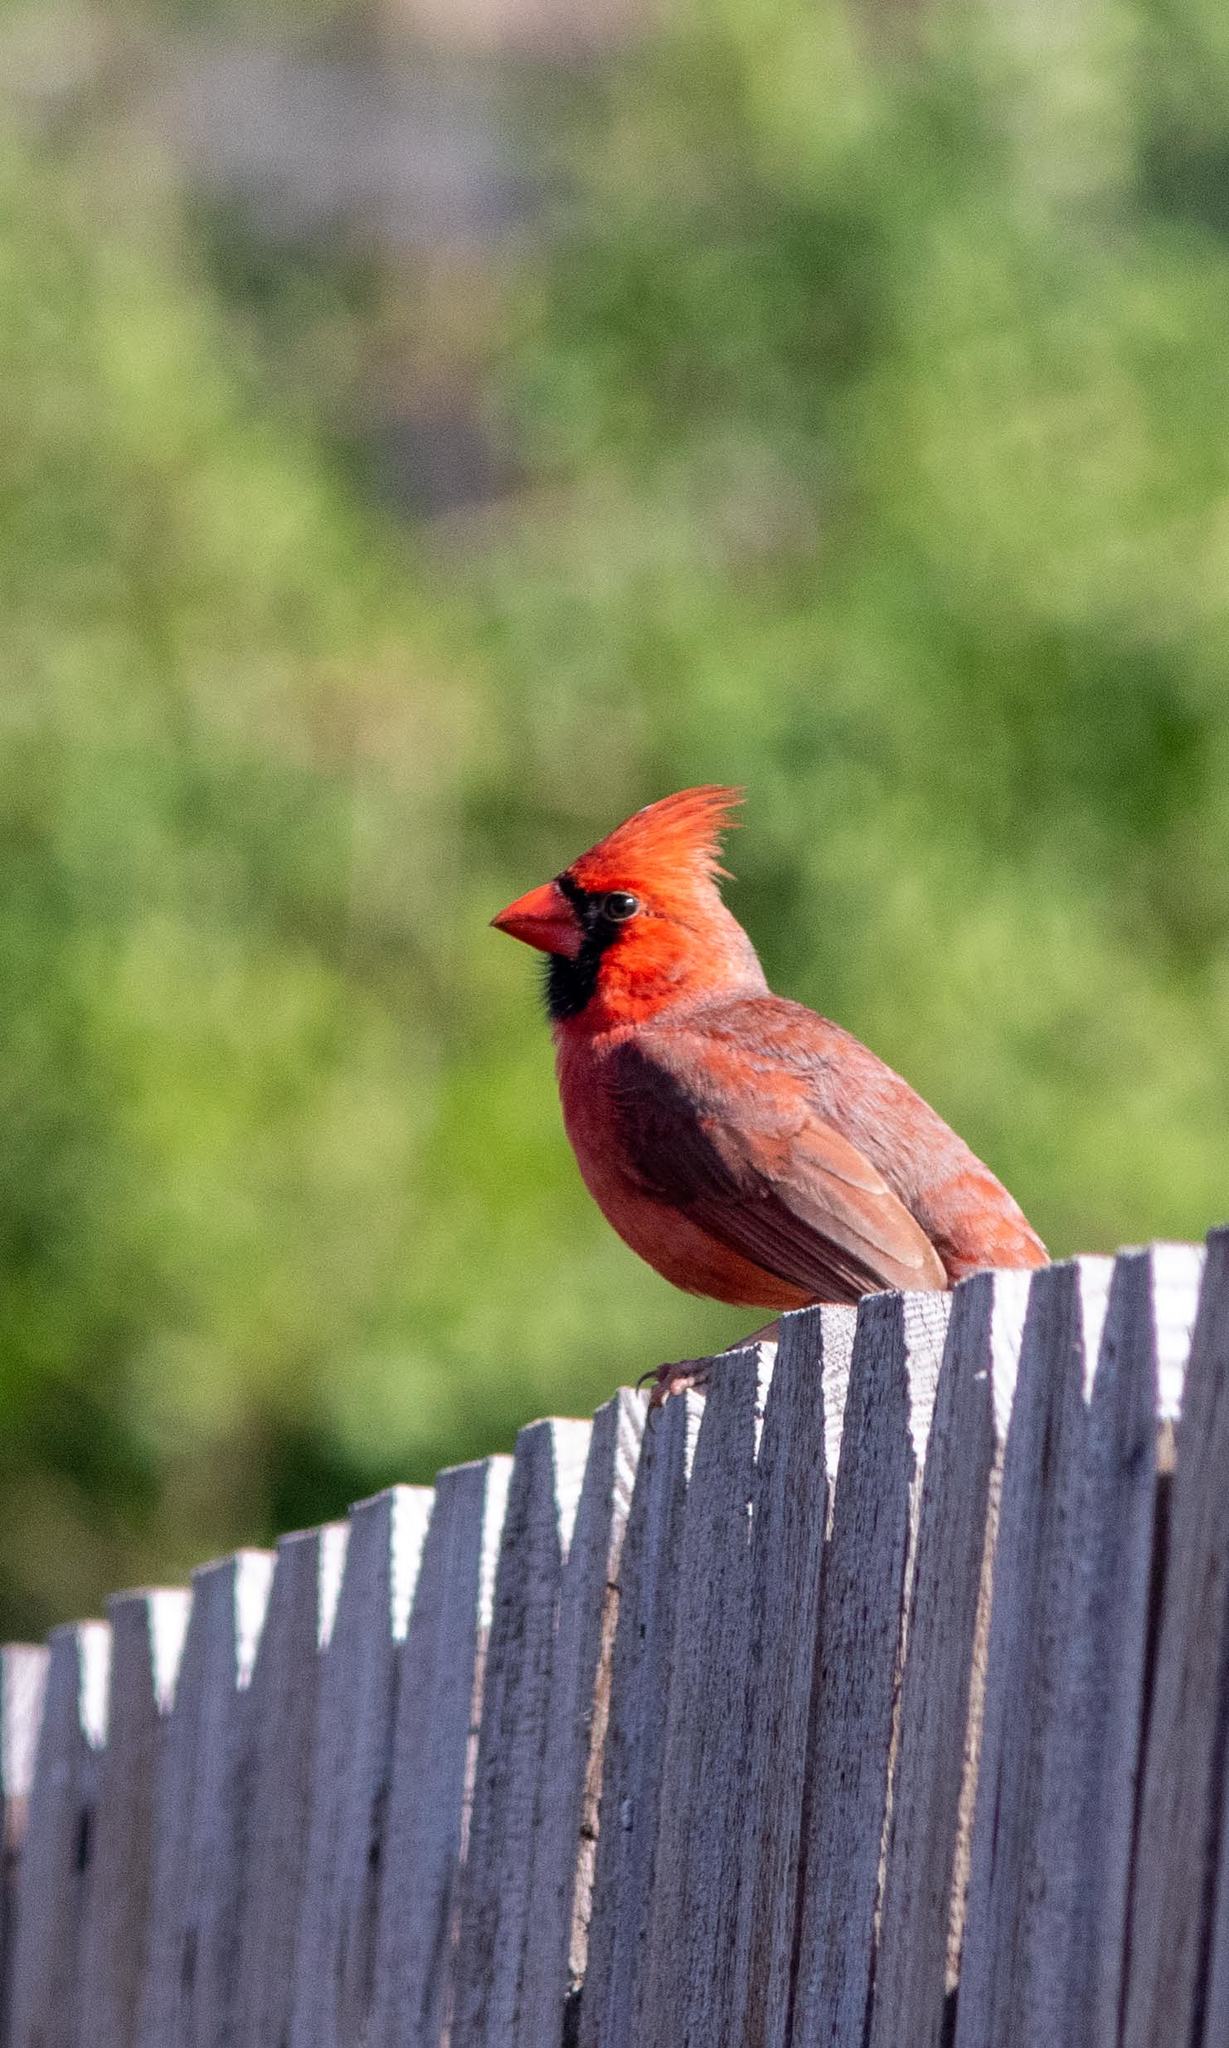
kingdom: Animalia
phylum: Chordata
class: Aves
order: Passeriformes
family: Cardinalidae
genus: Cardinalis
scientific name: Cardinalis cardinalis
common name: Northern cardinal
